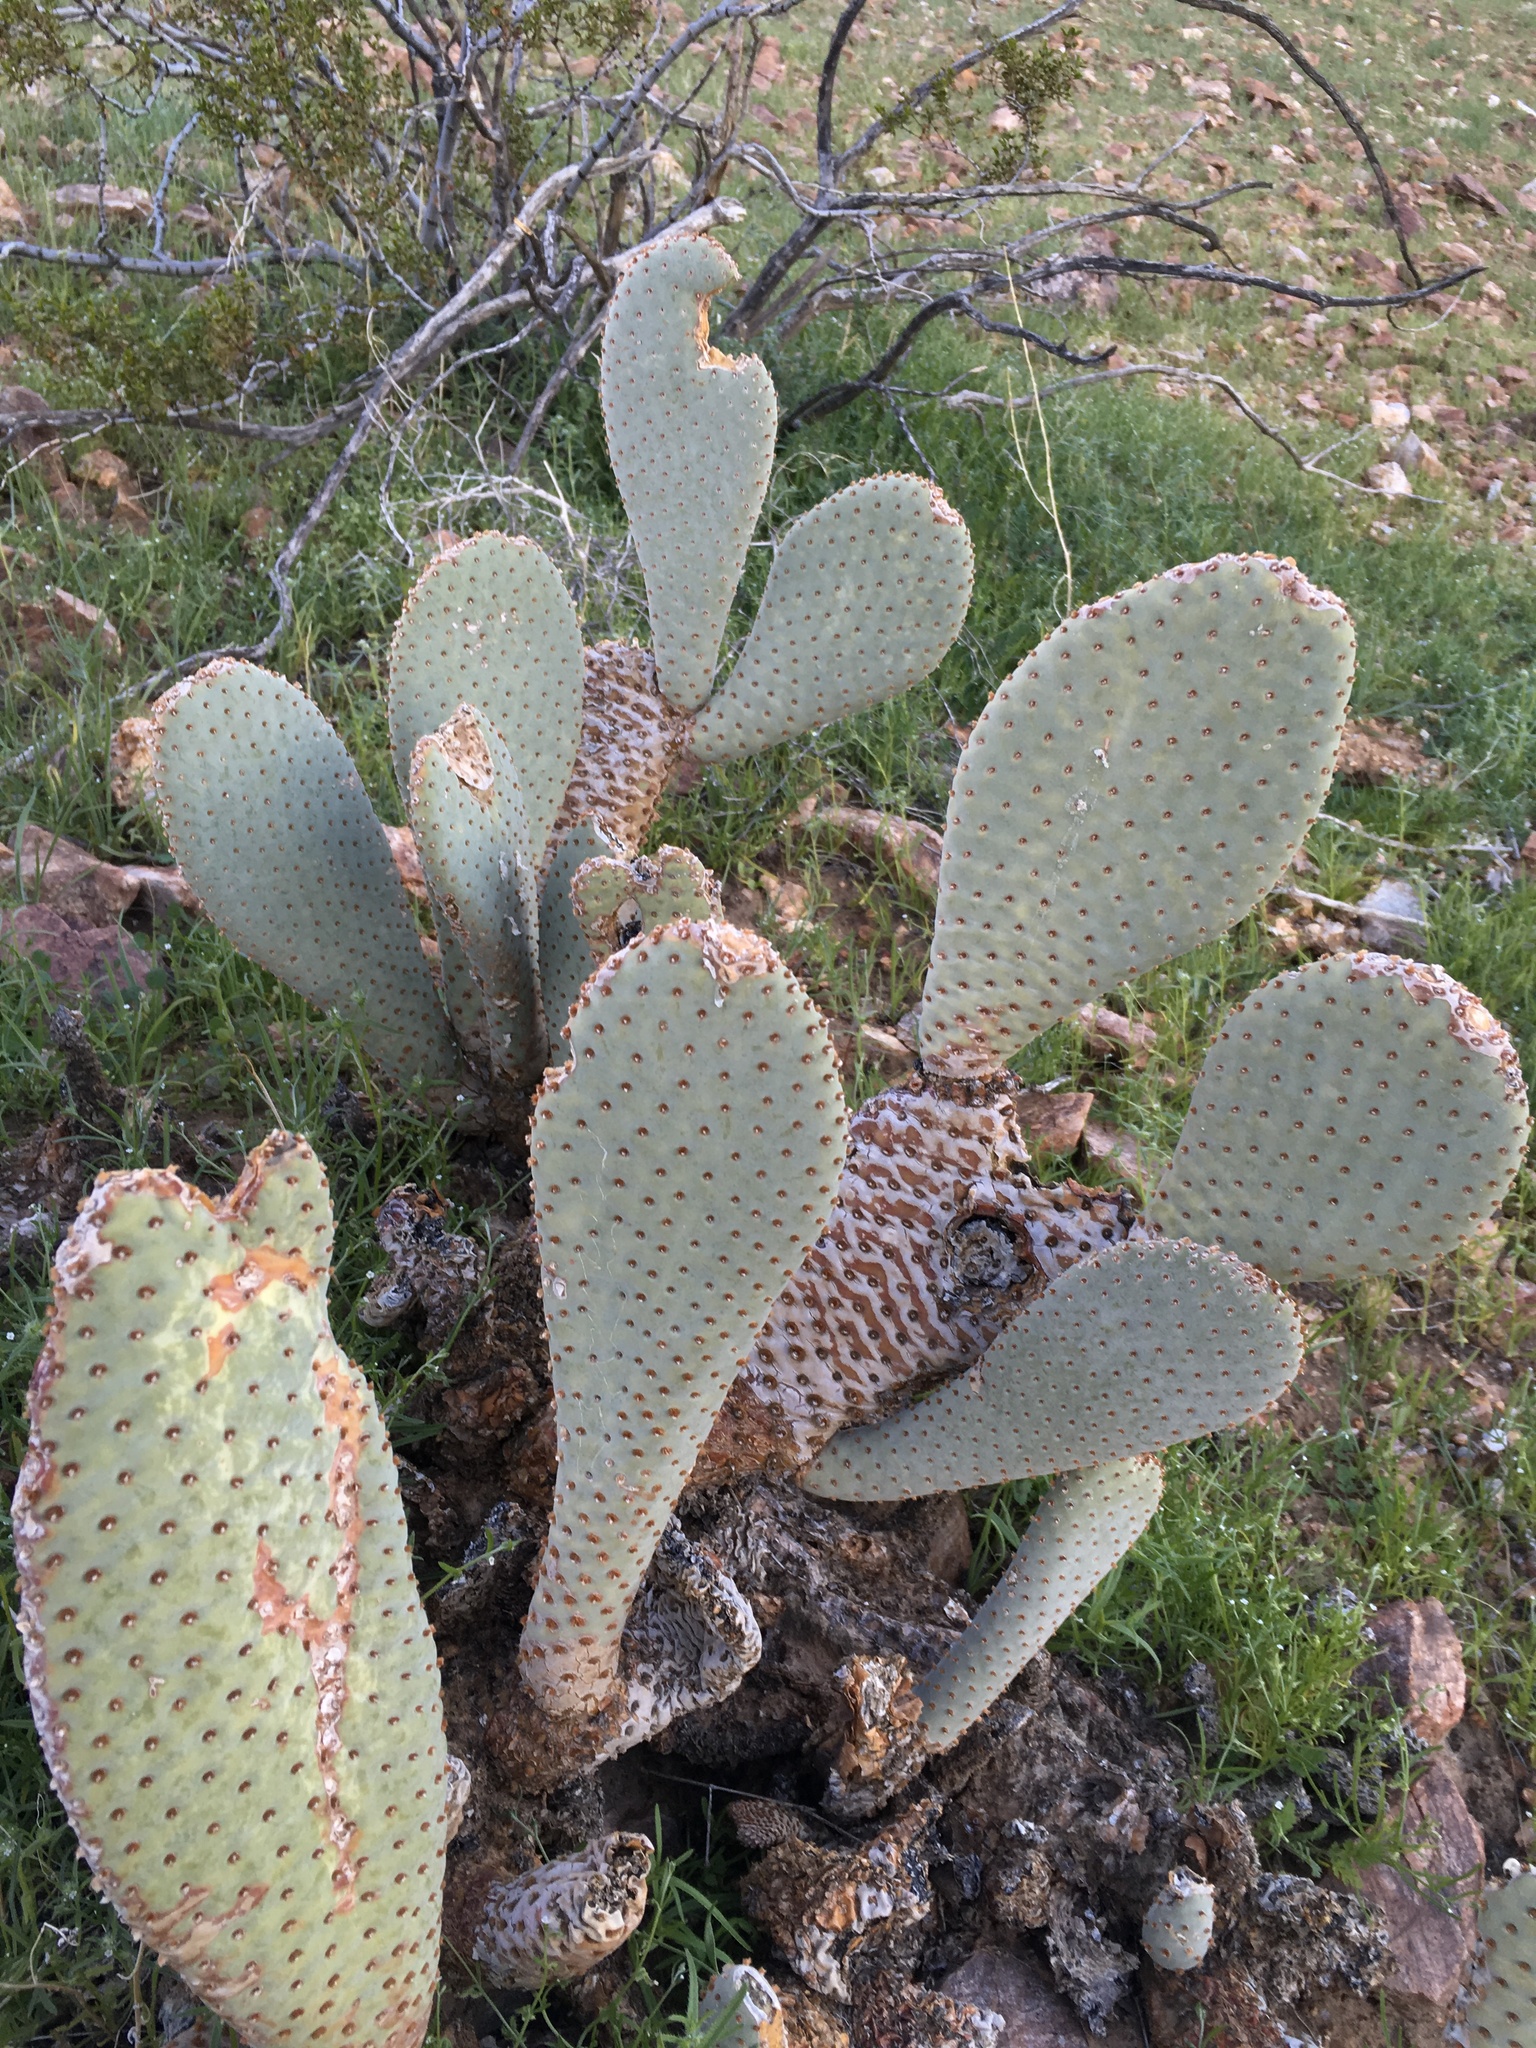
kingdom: Plantae
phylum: Tracheophyta
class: Magnoliopsida
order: Caryophyllales
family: Cactaceae
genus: Opuntia
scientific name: Opuntia basilaris
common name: Beavertail prickly-pear
